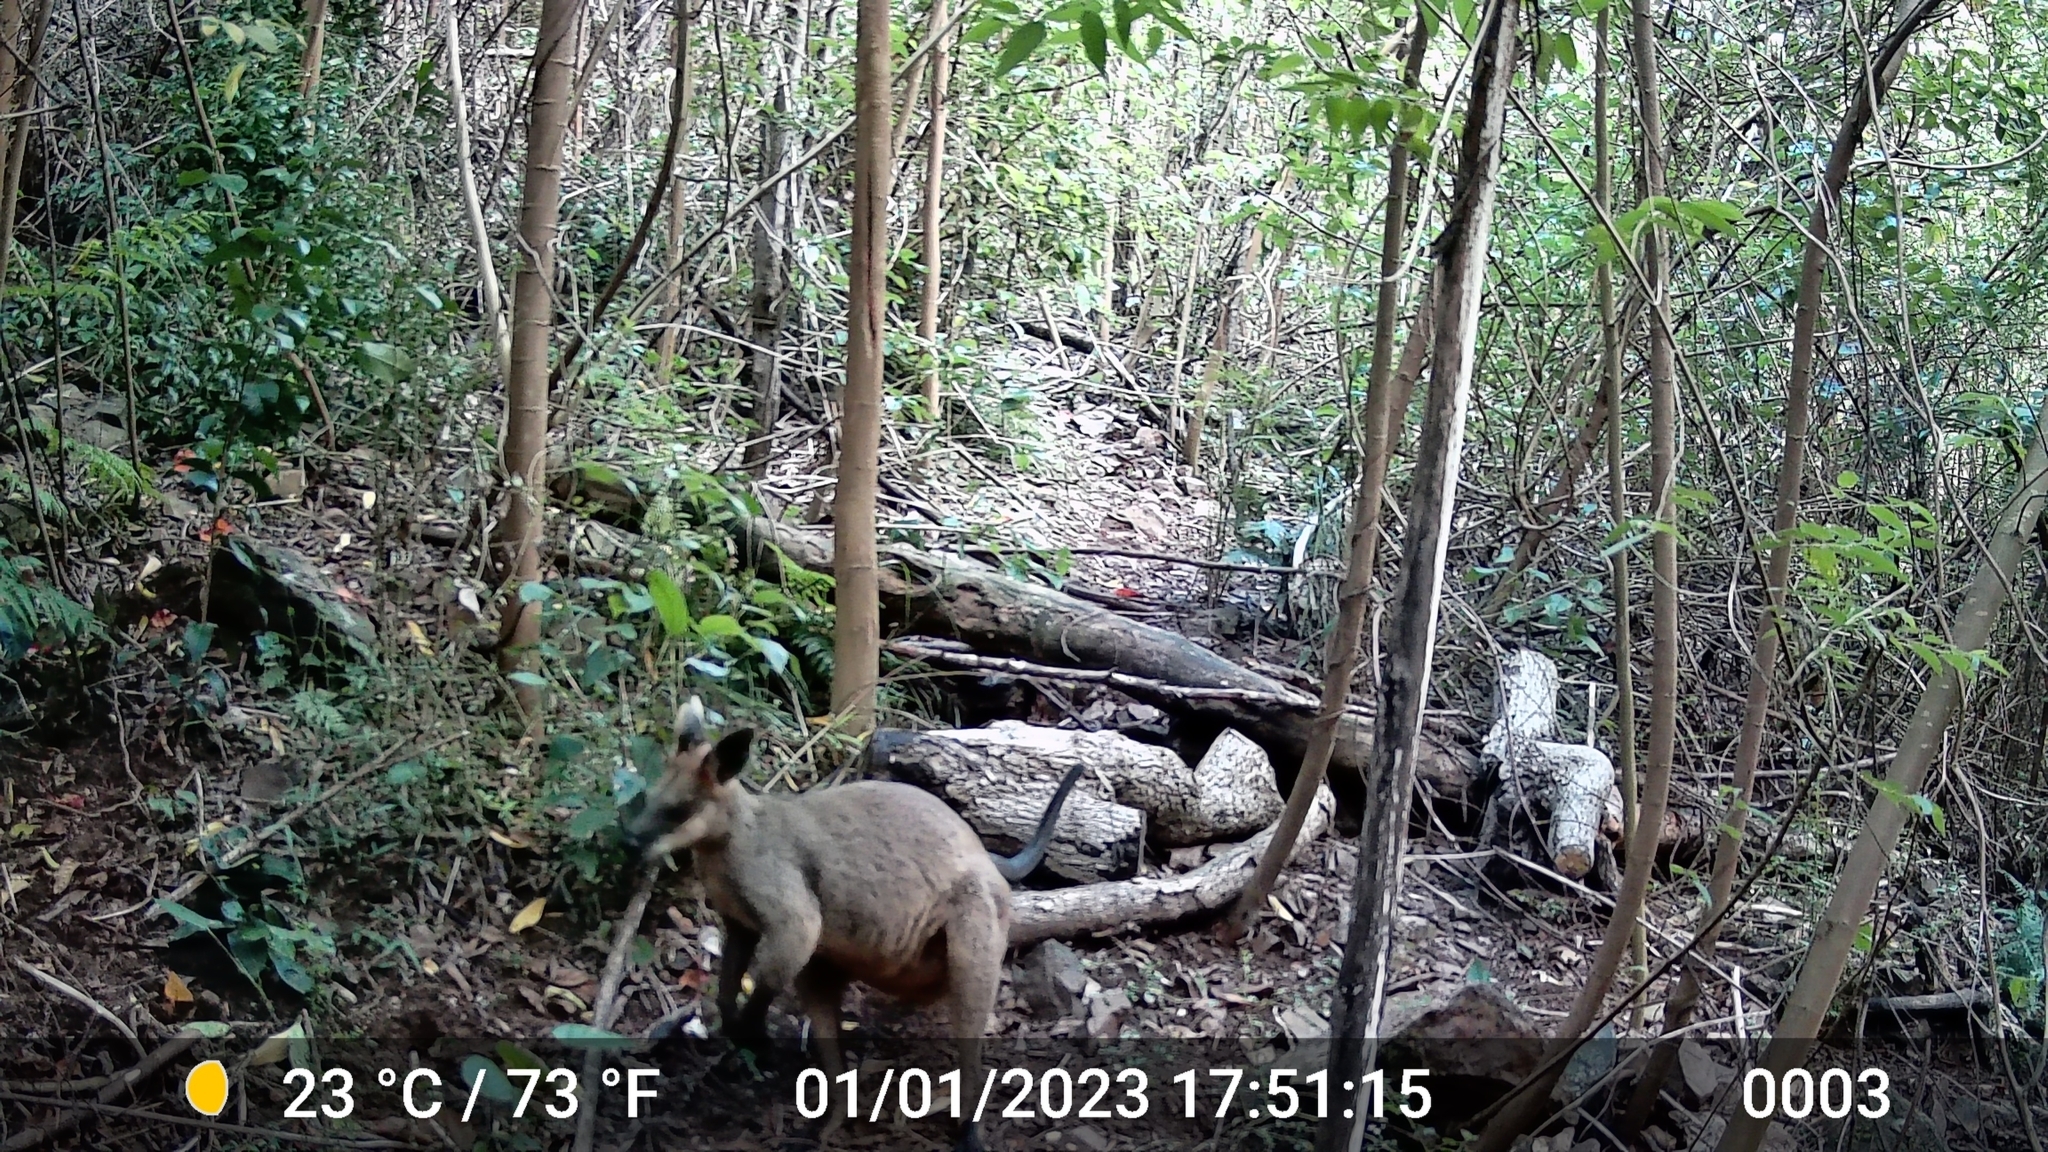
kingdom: Animalia
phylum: Chordata
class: Mammalia
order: Diprotodontia
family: Macropodidae
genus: Wallabia
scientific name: Wallabia bicolor
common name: Swamp wallaby
